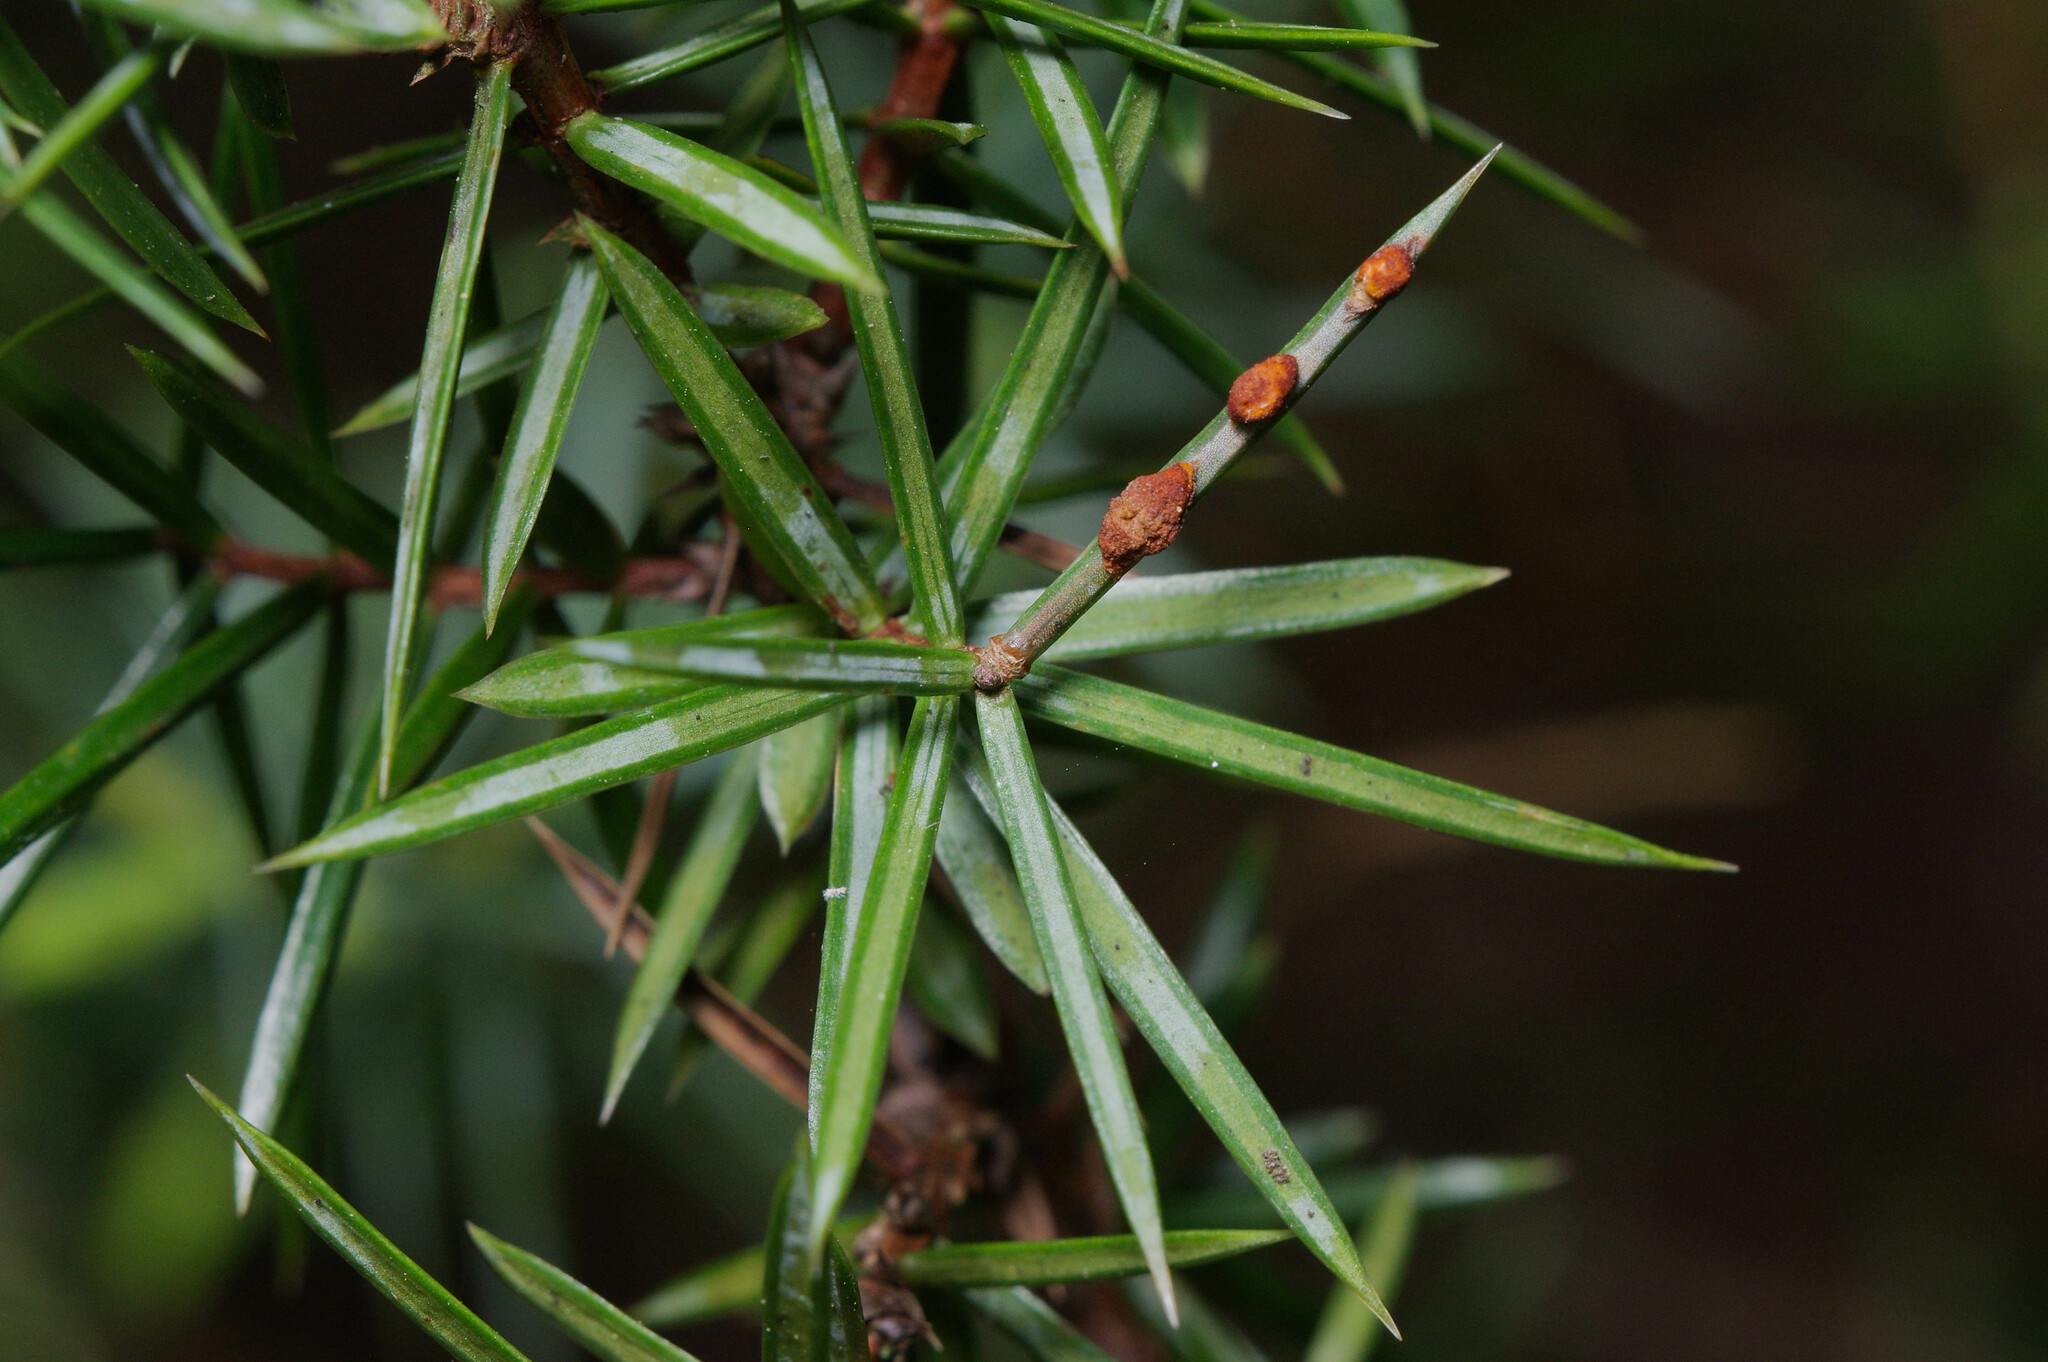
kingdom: Fungi
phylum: Basidiomycota
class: Pucciniomycetes
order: Pucciniales
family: Gymnosporangiaceae
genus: Gymnosporangium
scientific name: Gymnosporangium cornutum
